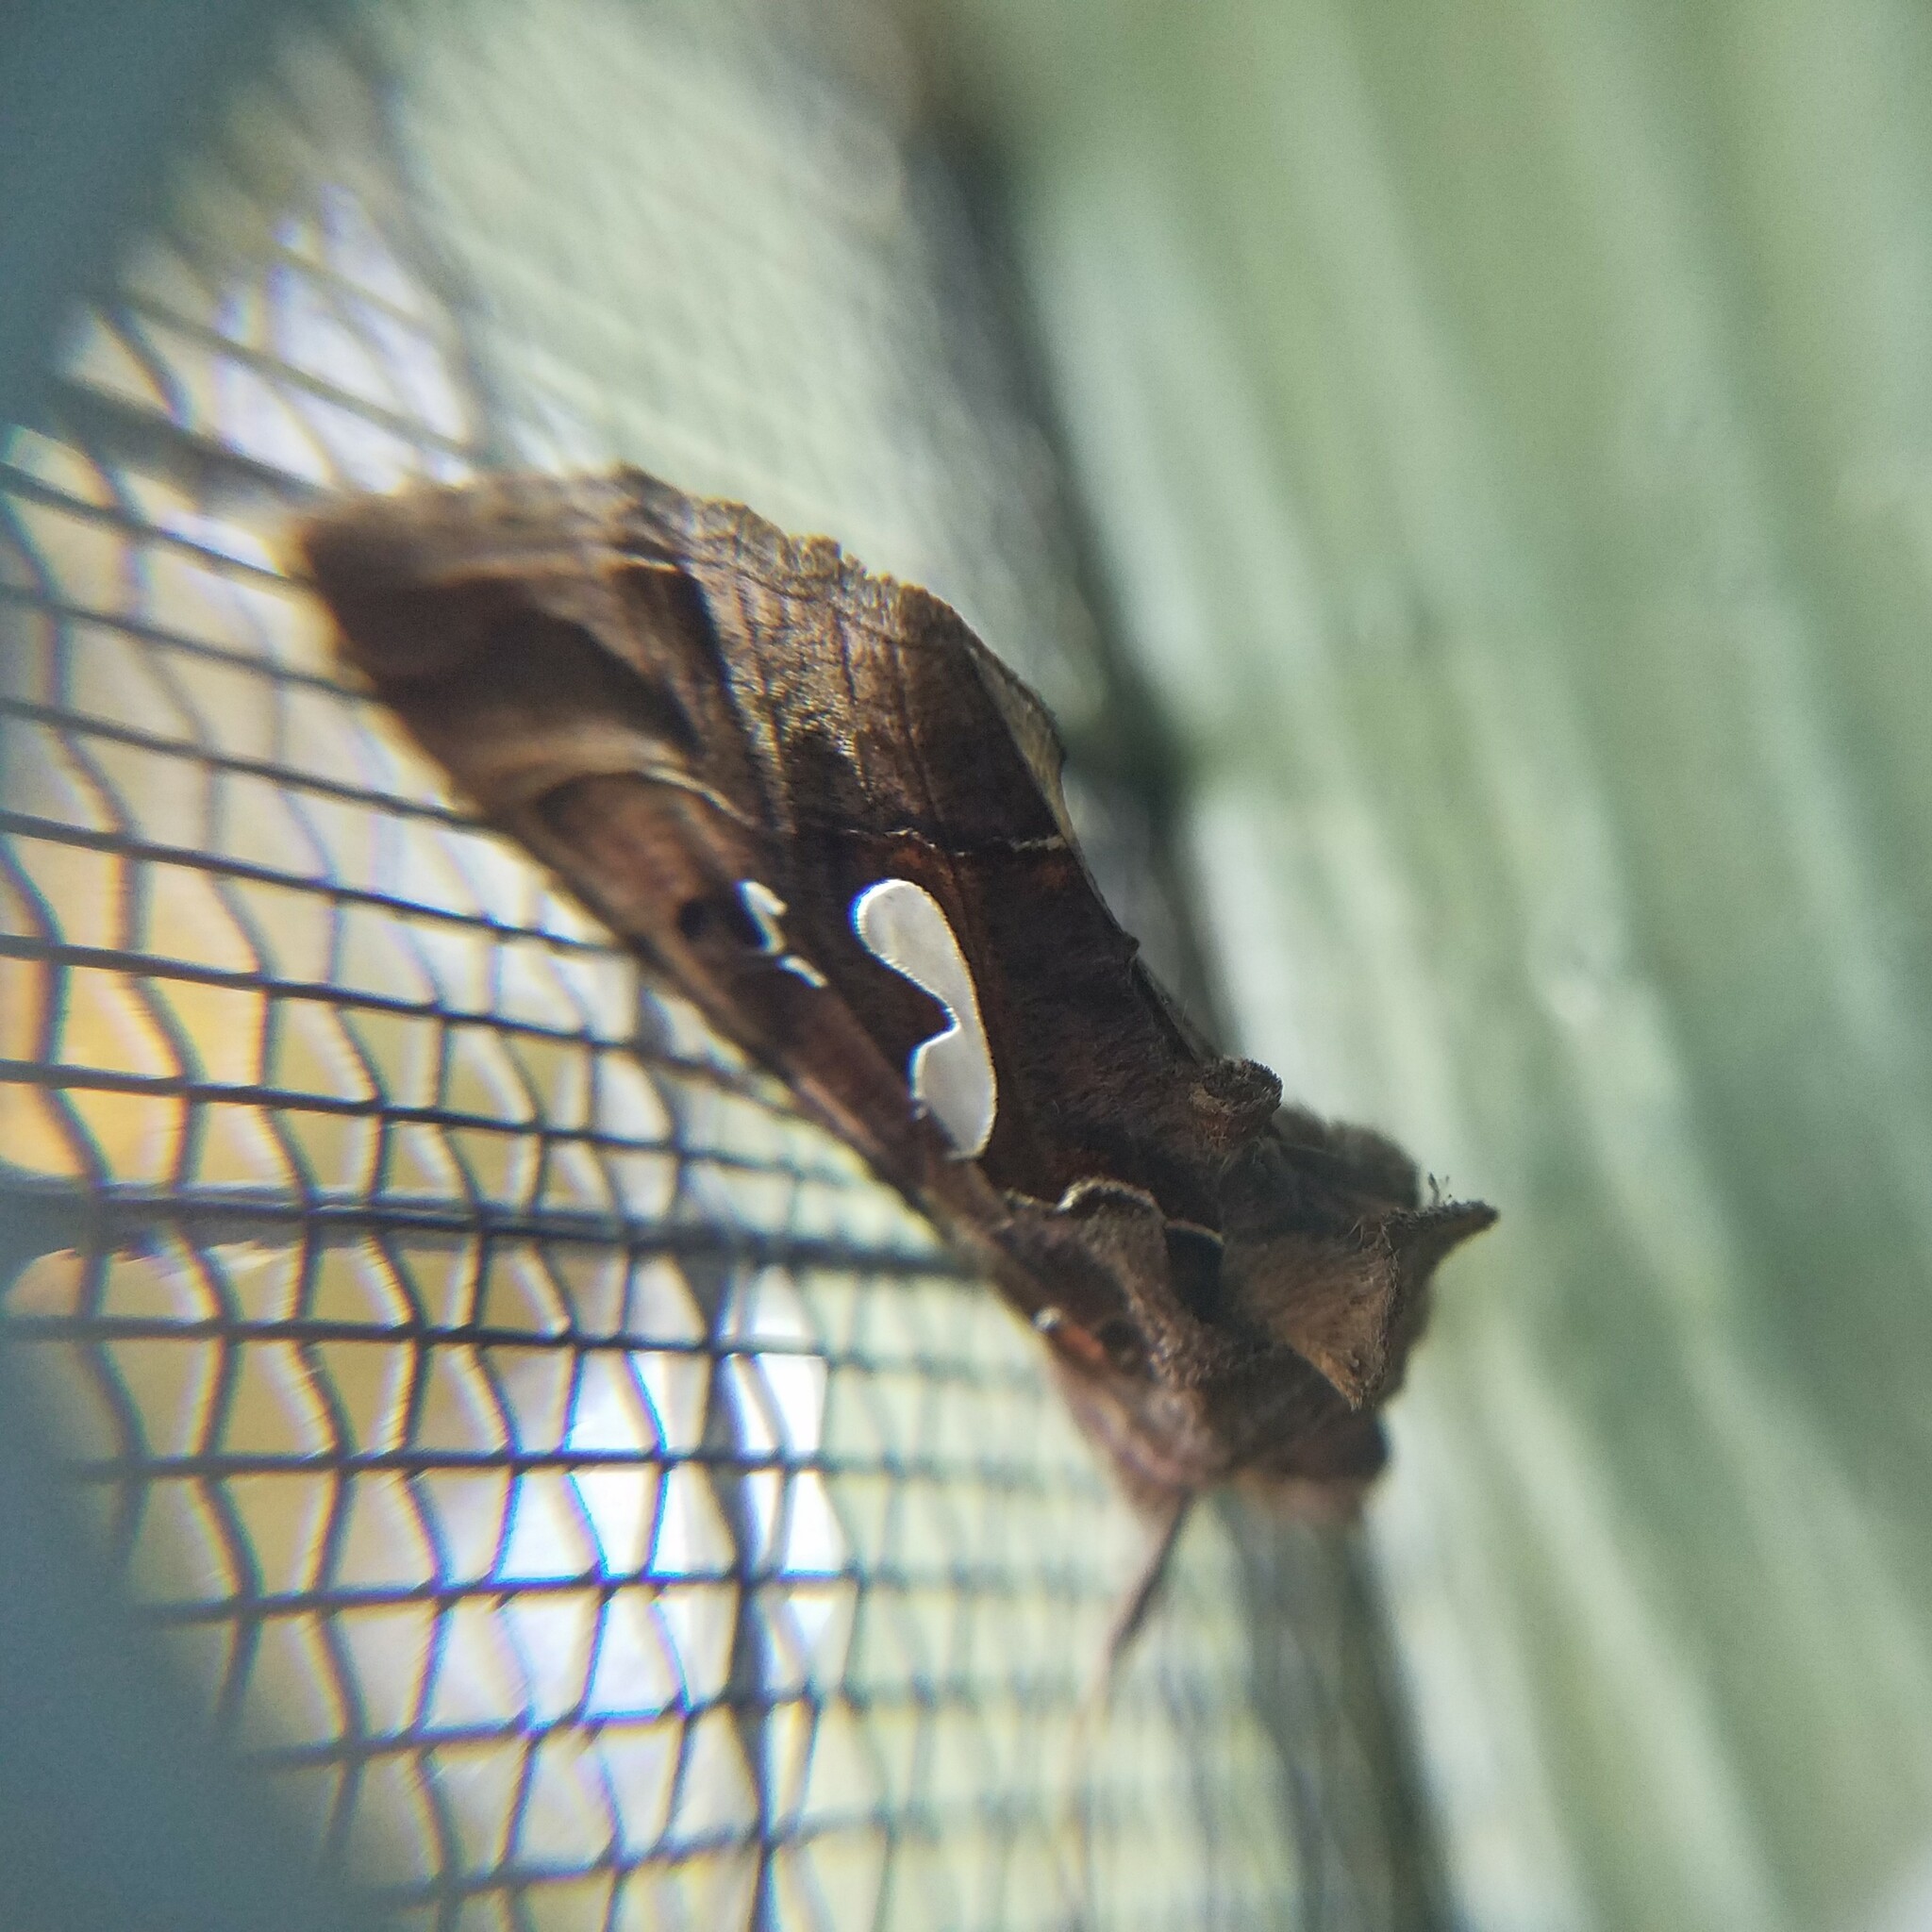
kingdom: Animalia
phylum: Arthropoda
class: Insecta
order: Lepidoptera
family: Noctuidae
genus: Megalographa
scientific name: Megalographa biloba
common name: Cutworm
